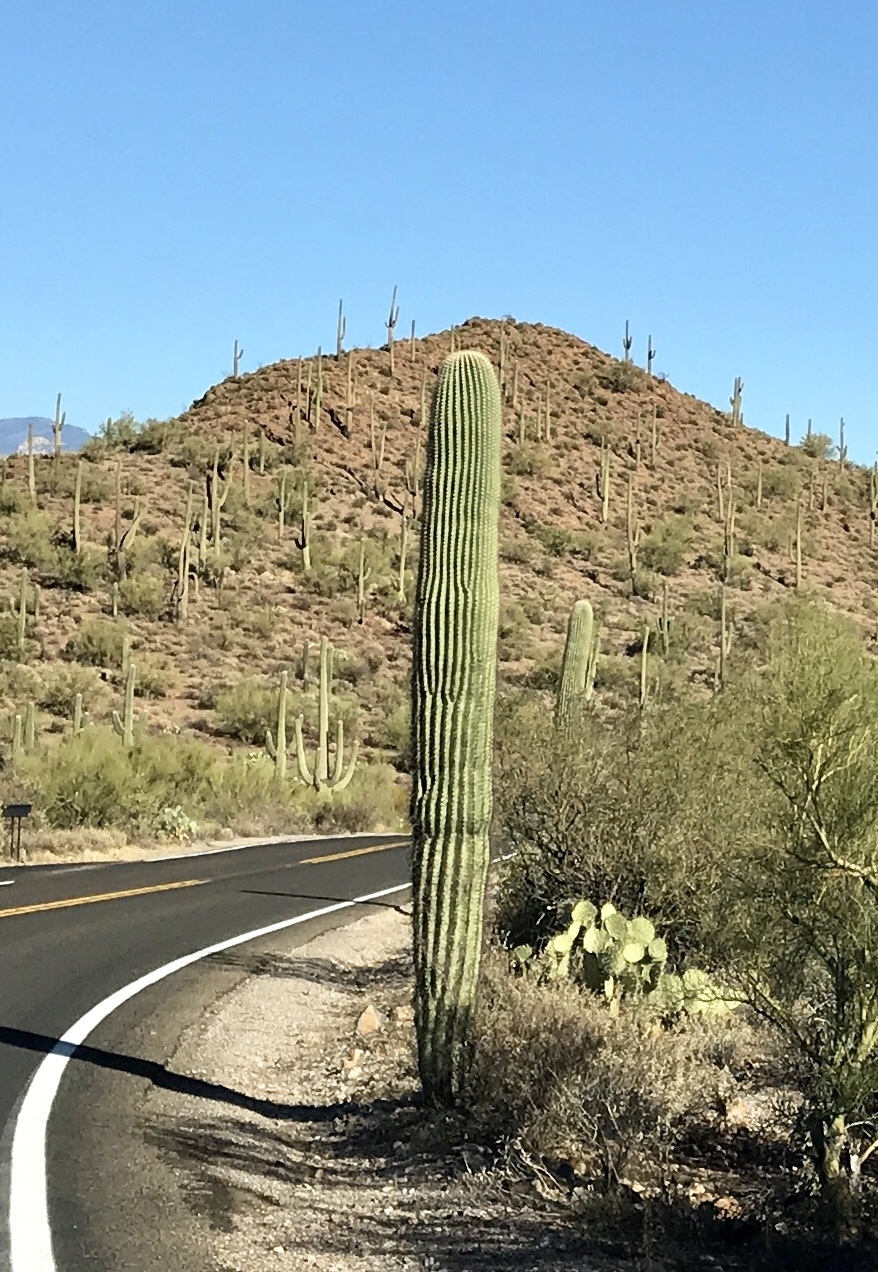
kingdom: Plantae
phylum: Tracheophyta
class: Magnoliopsida
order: Caryophyllales
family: Cactaceae
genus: Carnegiea
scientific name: Carnegiea gigantea
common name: Saguaro
